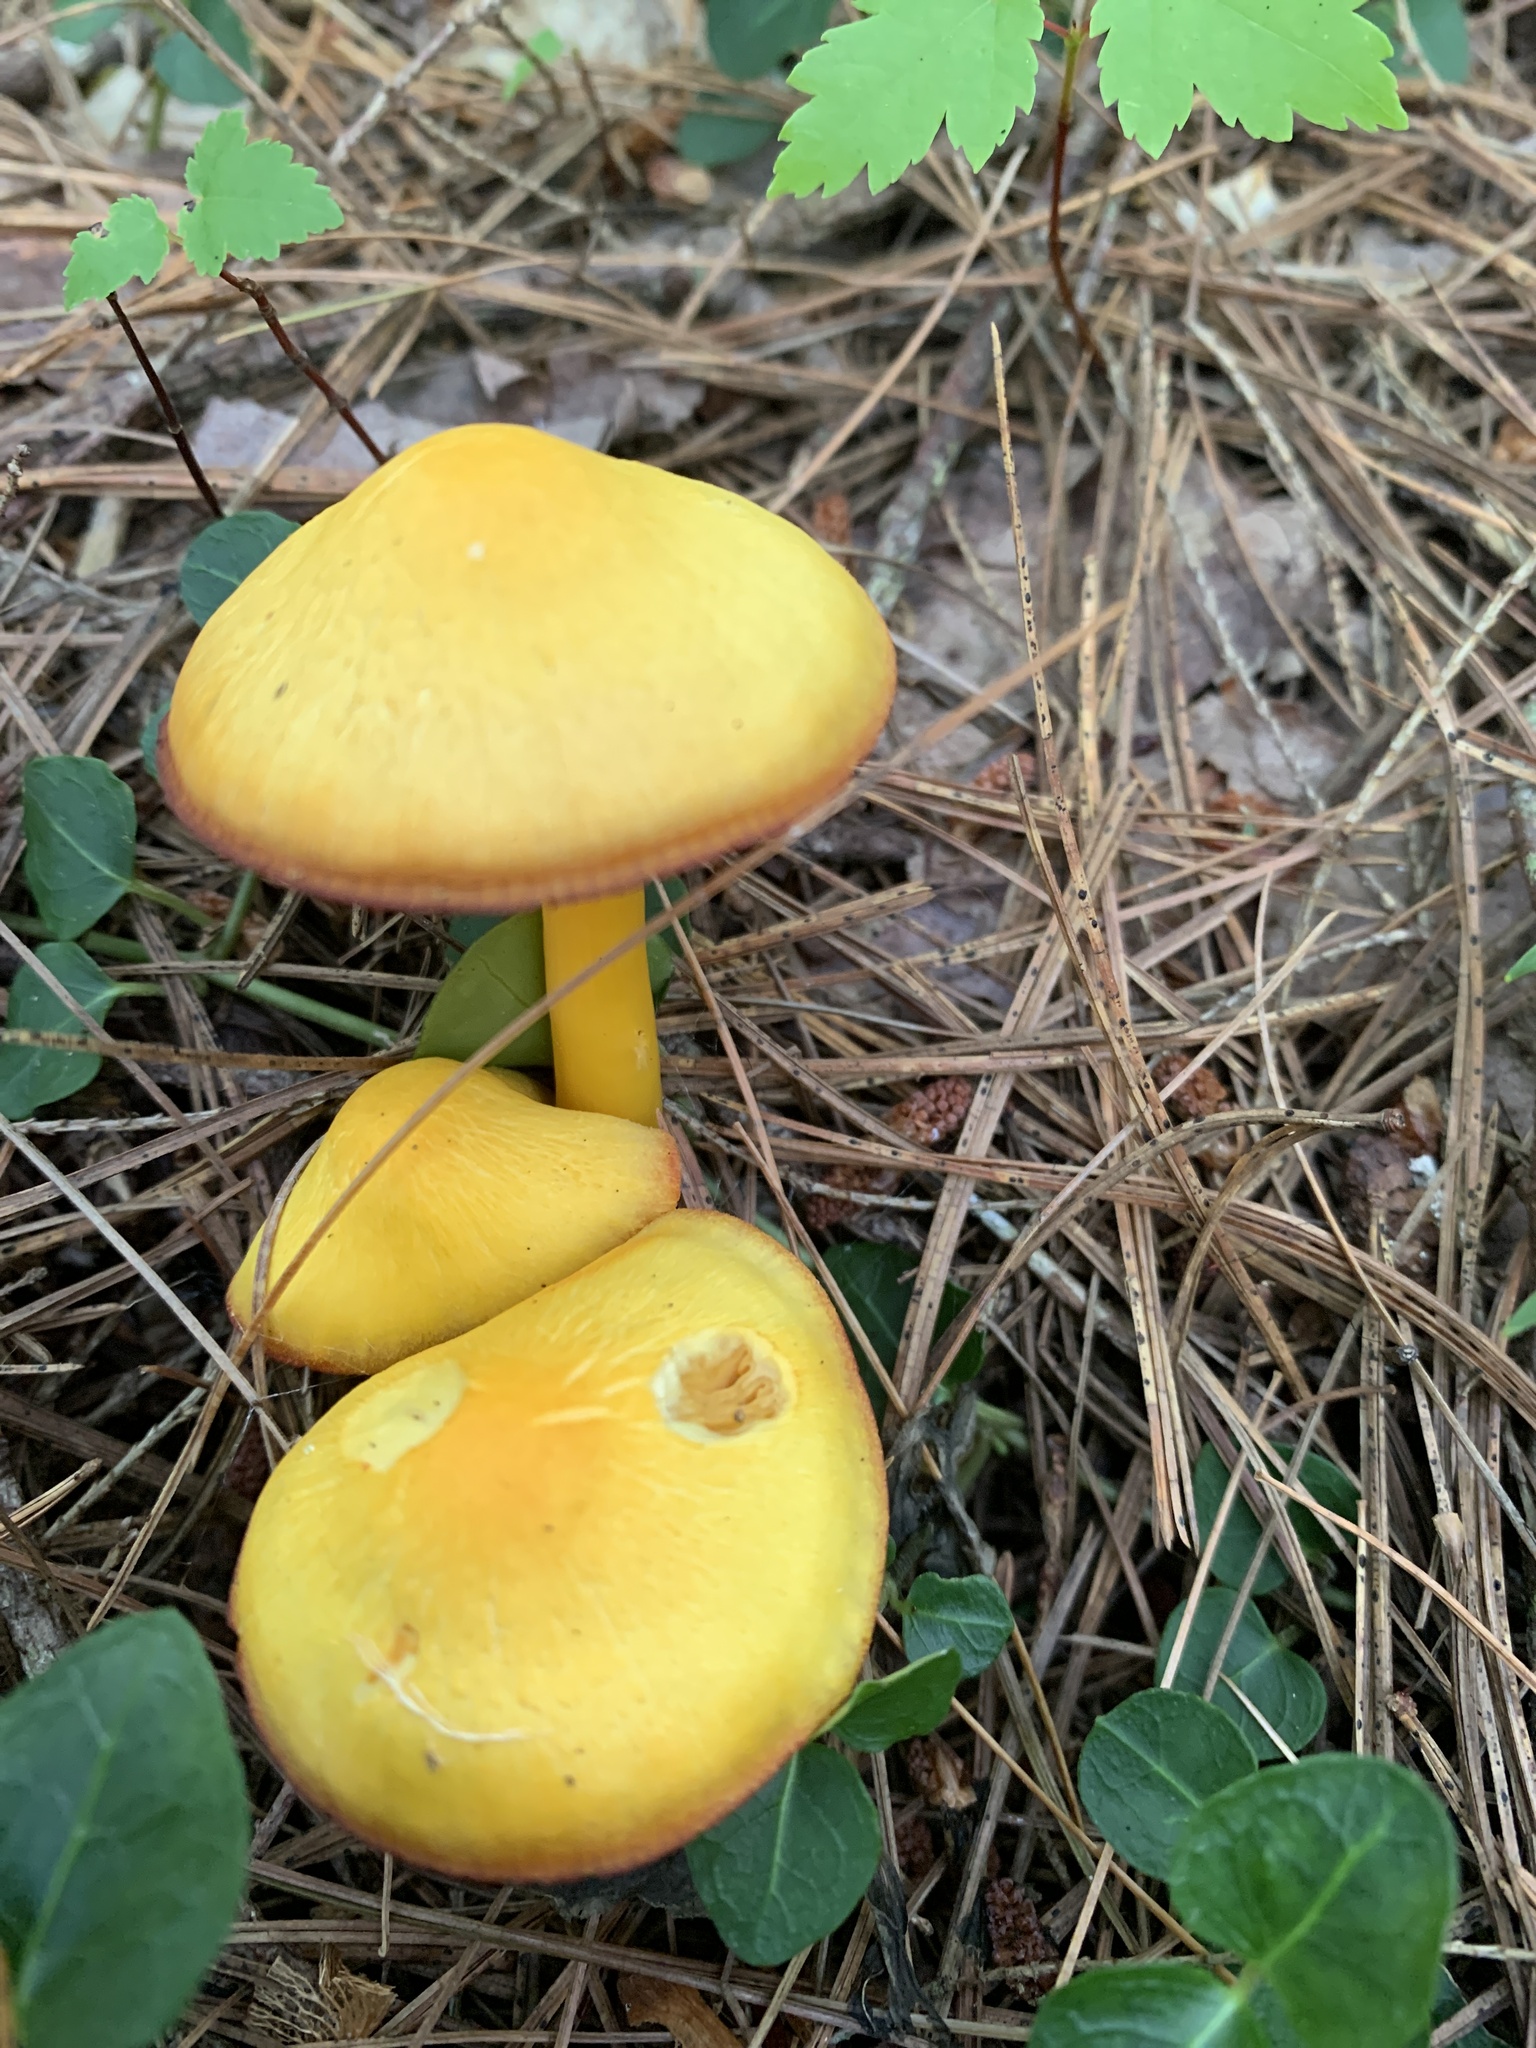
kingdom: Fungi
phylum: Basidiomycota
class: Agaricomycetes
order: Agaricales
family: Hygrophoraceae
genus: Humidicutis
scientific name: Humidicutis marginata
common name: Orange gilled waxcap
